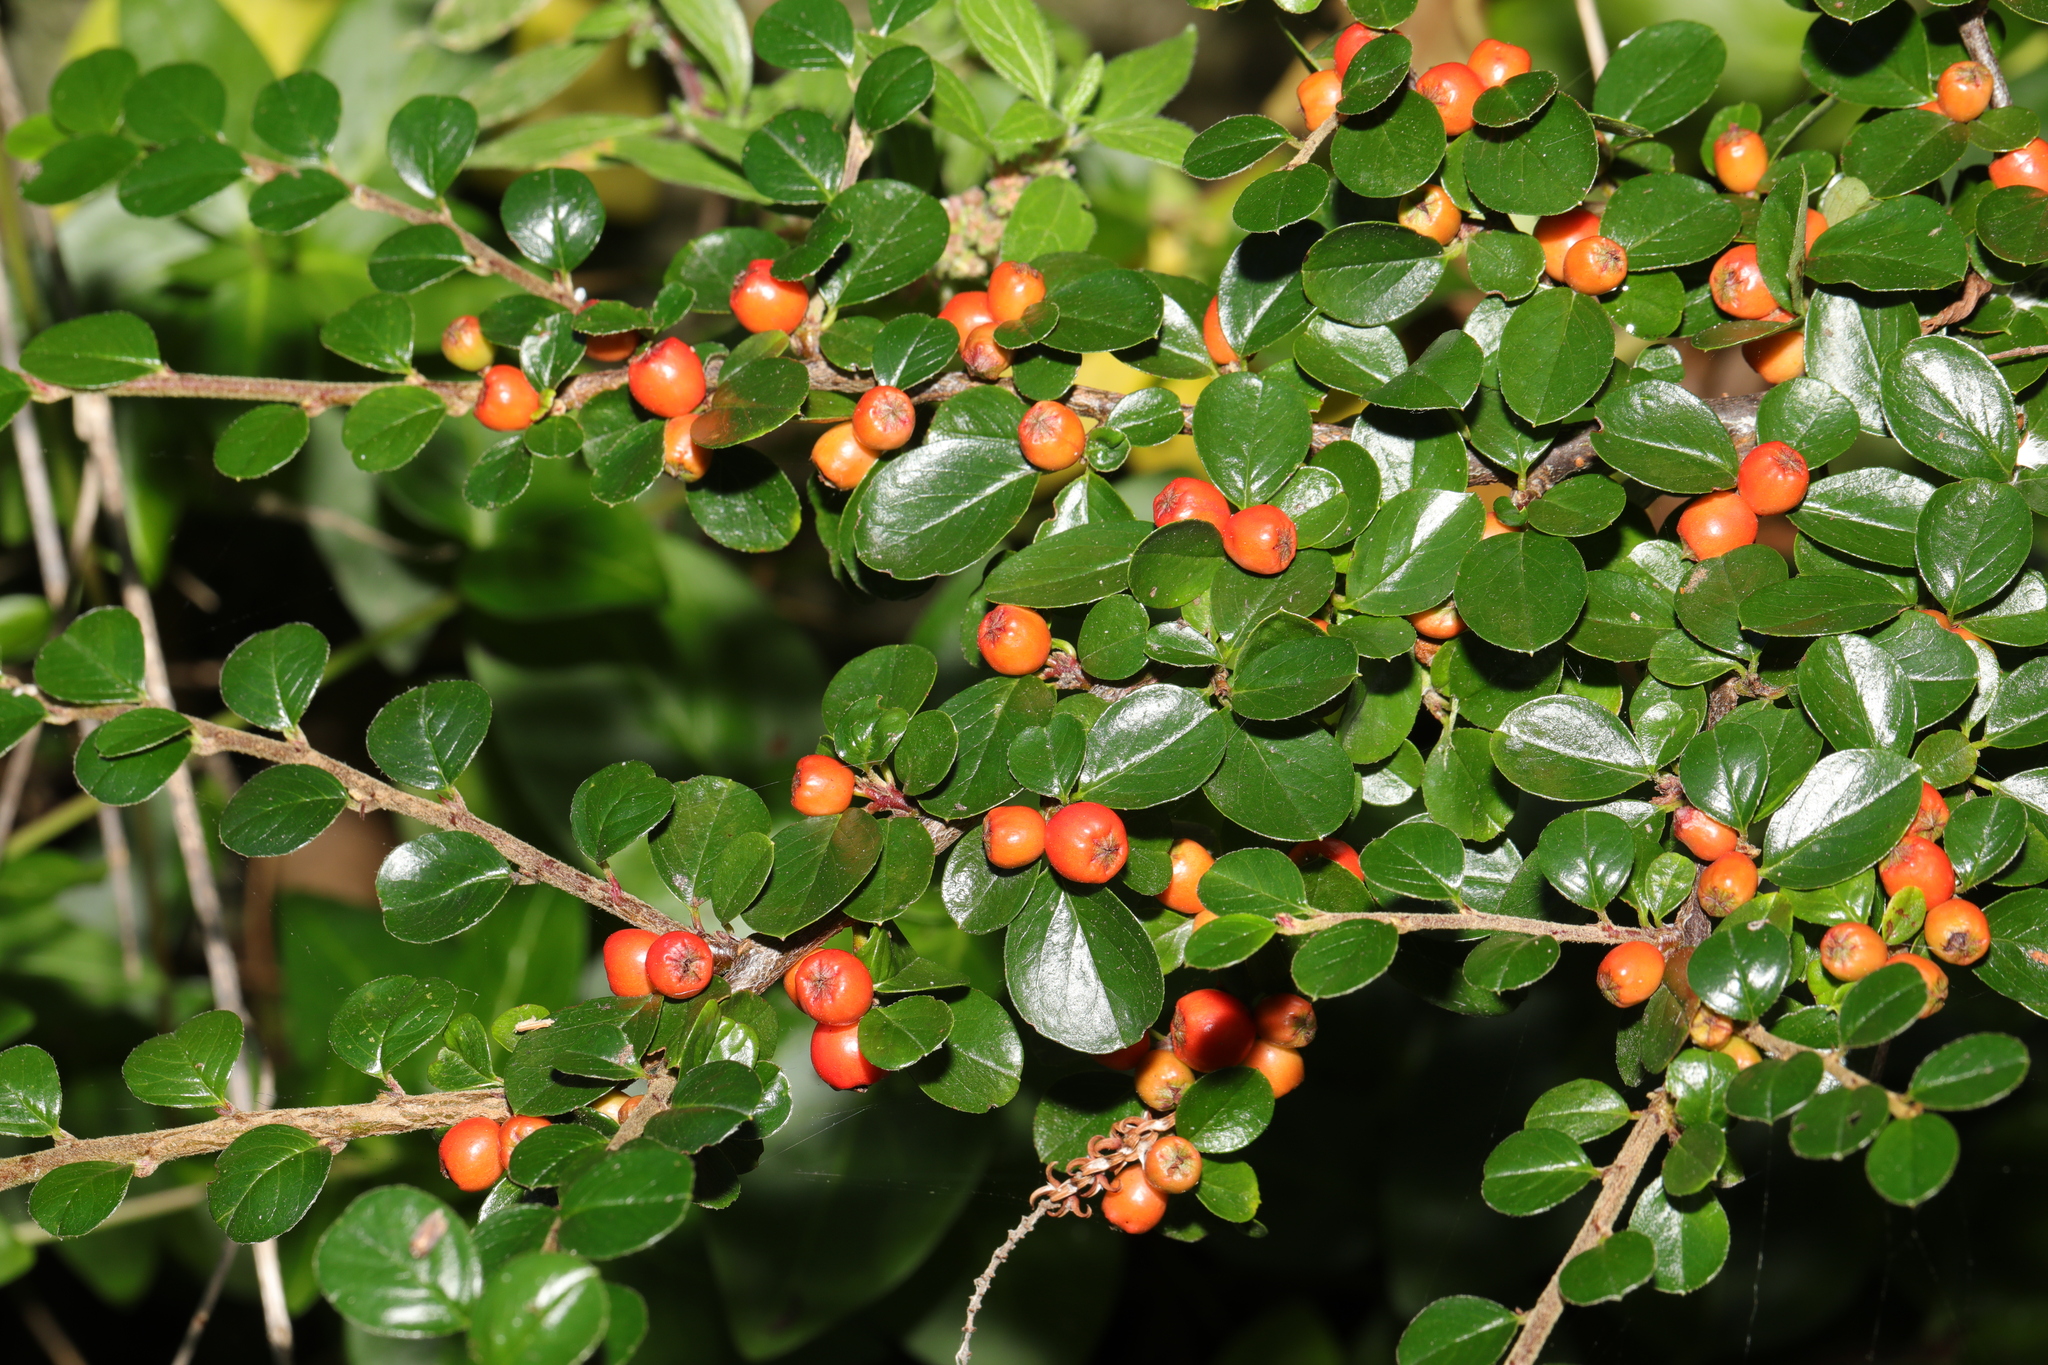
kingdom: Plantae
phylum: Tracheophyta
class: Magnoliopsida
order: Rosales
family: Rosaceae
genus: Cotoneaster
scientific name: Cotoneaster hjelmqvistii
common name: Hjelmqvist's cotoneaster
